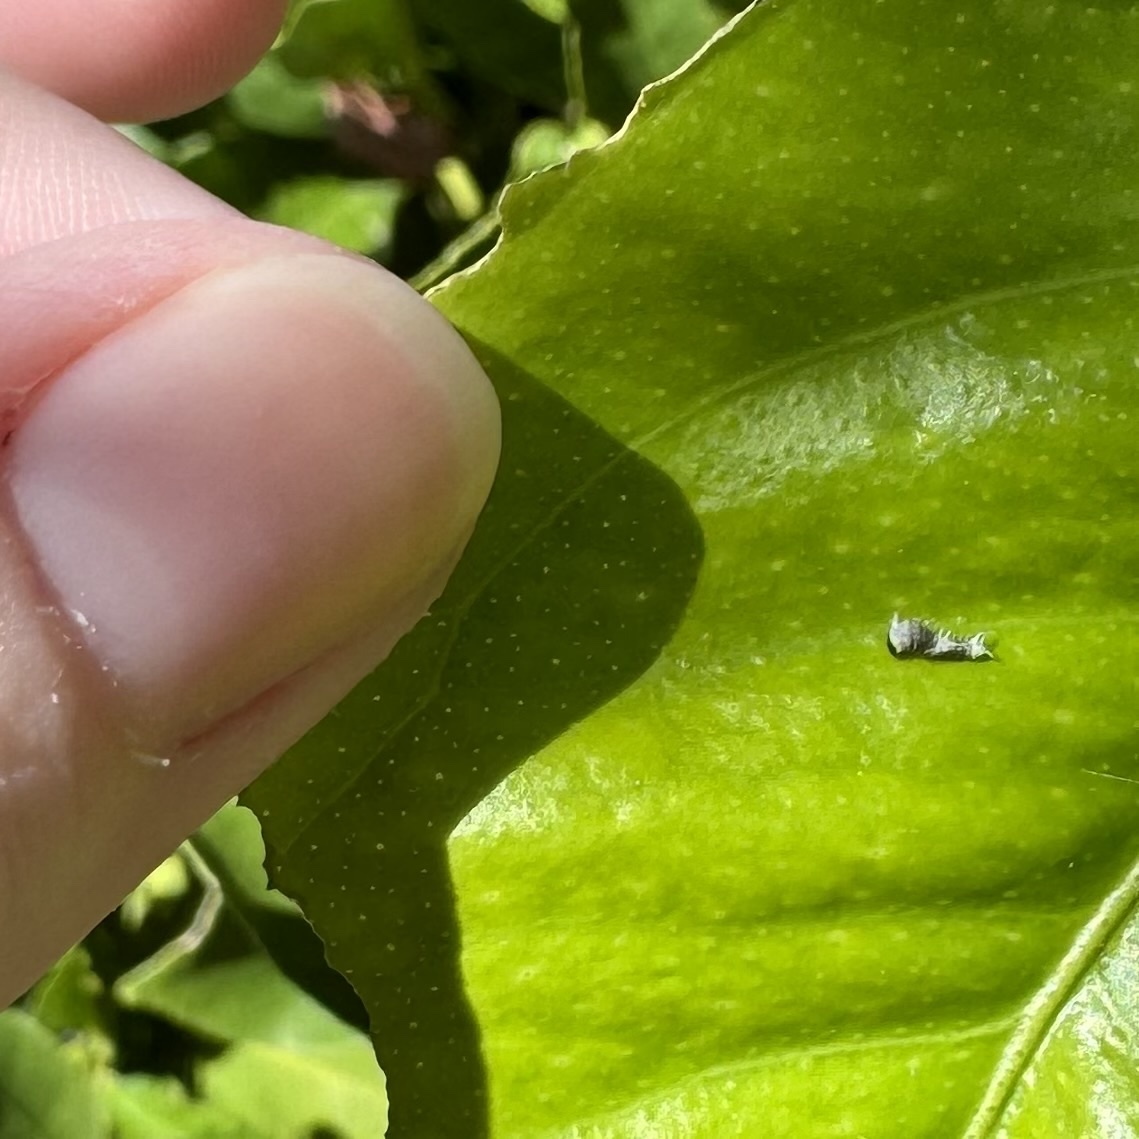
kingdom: Animalia
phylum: Arthropoda
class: Insecta
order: Lepidoptera
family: Papilionidae
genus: Papilio
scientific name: Papilio aegeus
